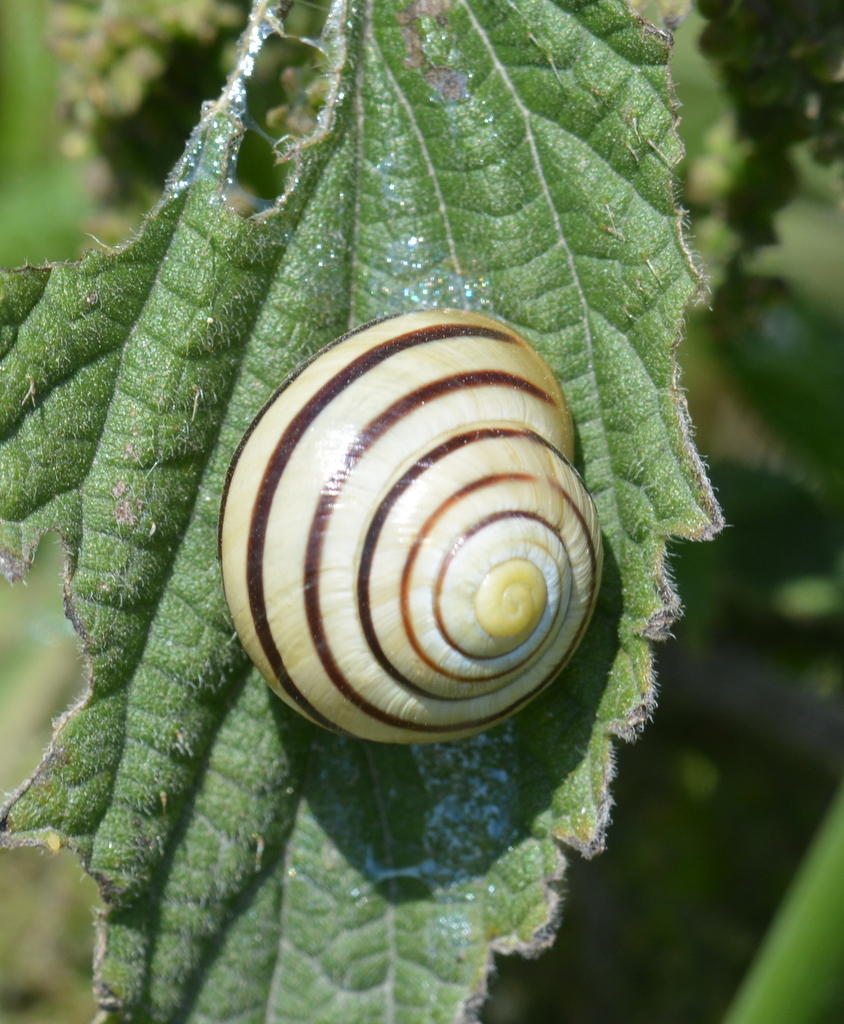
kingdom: Animalia
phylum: Mollusca
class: Gastropoda
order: Stylommatophora
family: Helicidae
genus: Cepaea
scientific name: Cepaea
